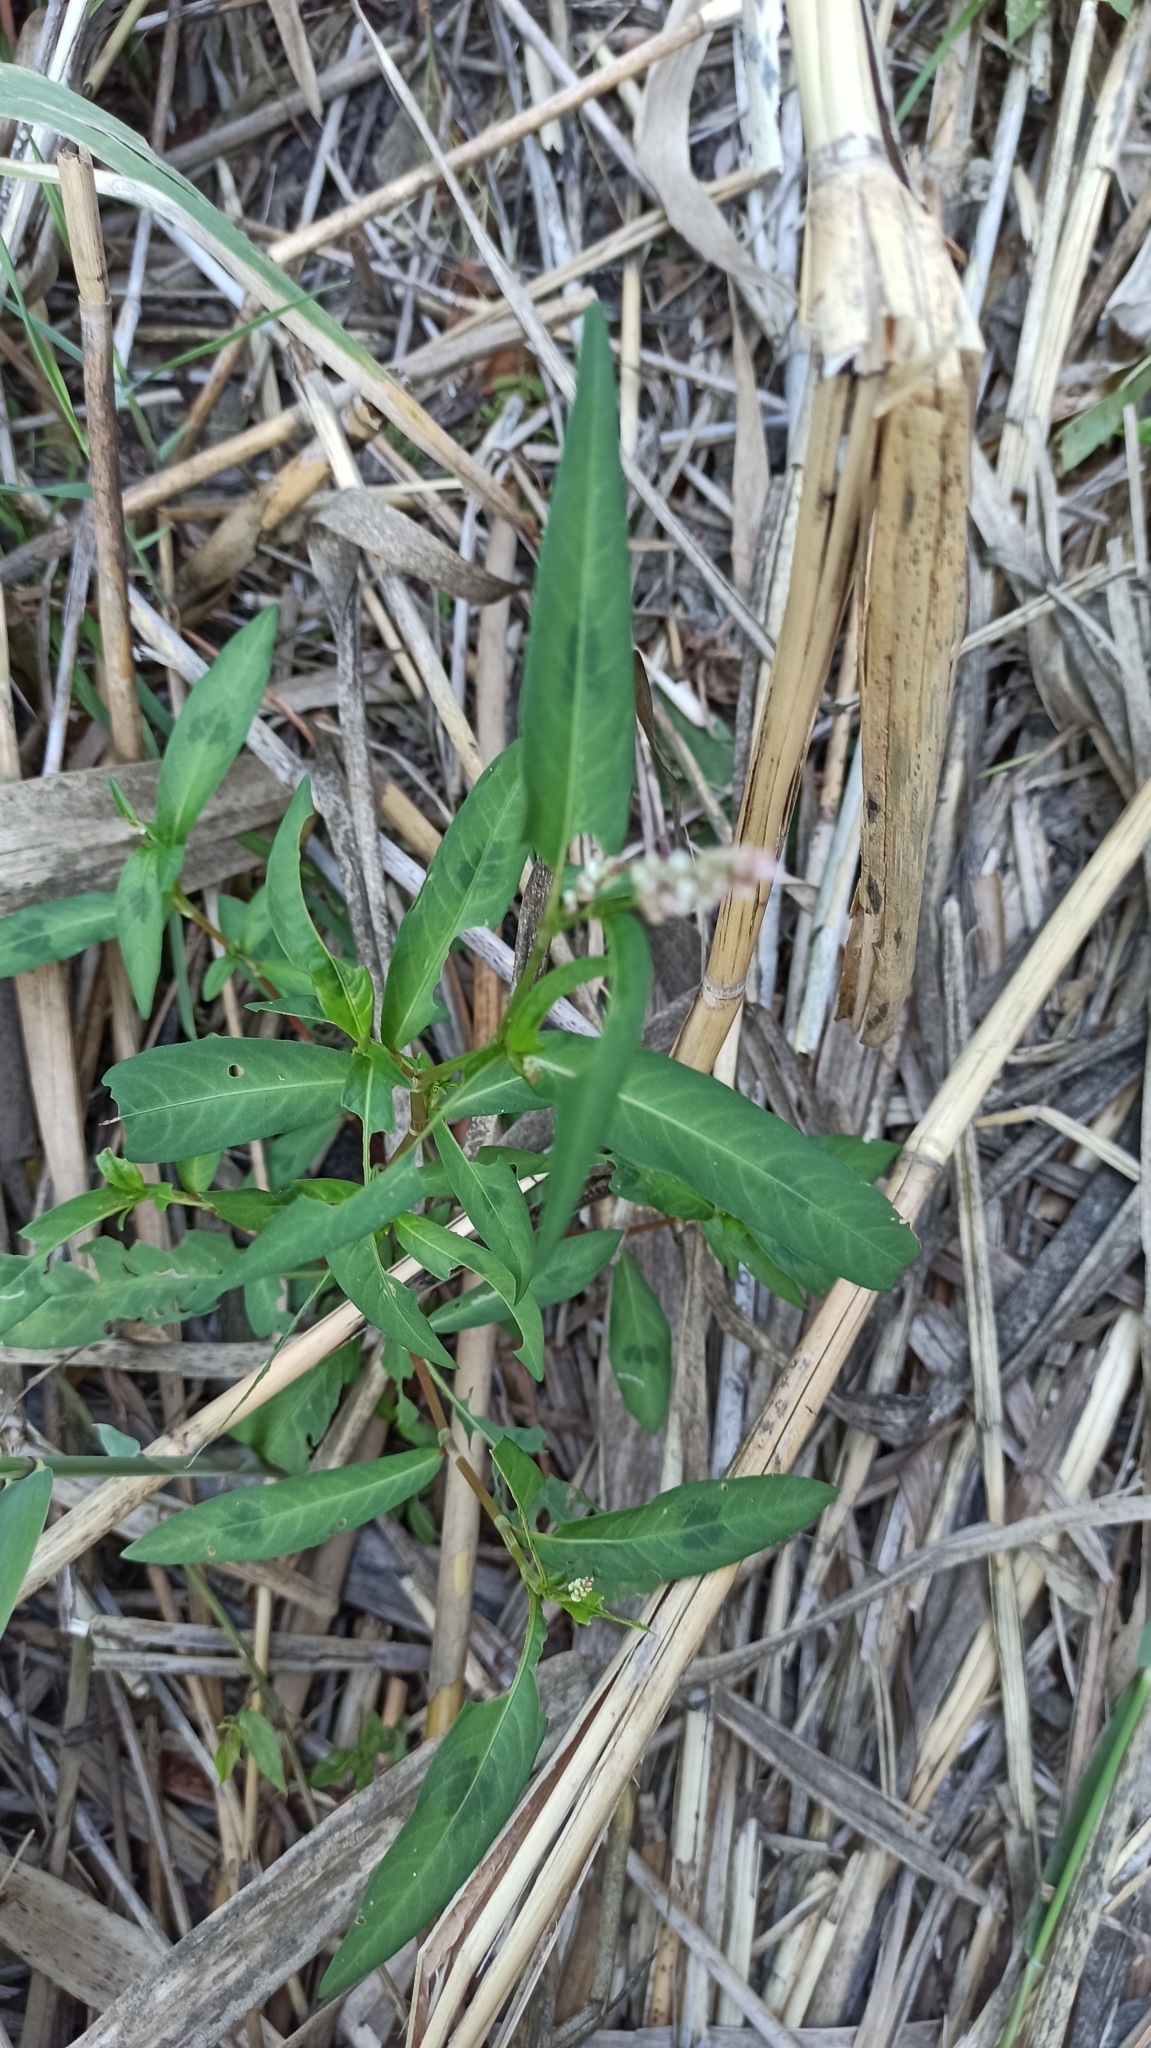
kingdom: Plantae
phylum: Tracheophyta
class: Magnoliopsida
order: Caryophyllales
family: Polygonaceae
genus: Persicaria
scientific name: Persicaria lapathifolia
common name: Curlytop knotweed
